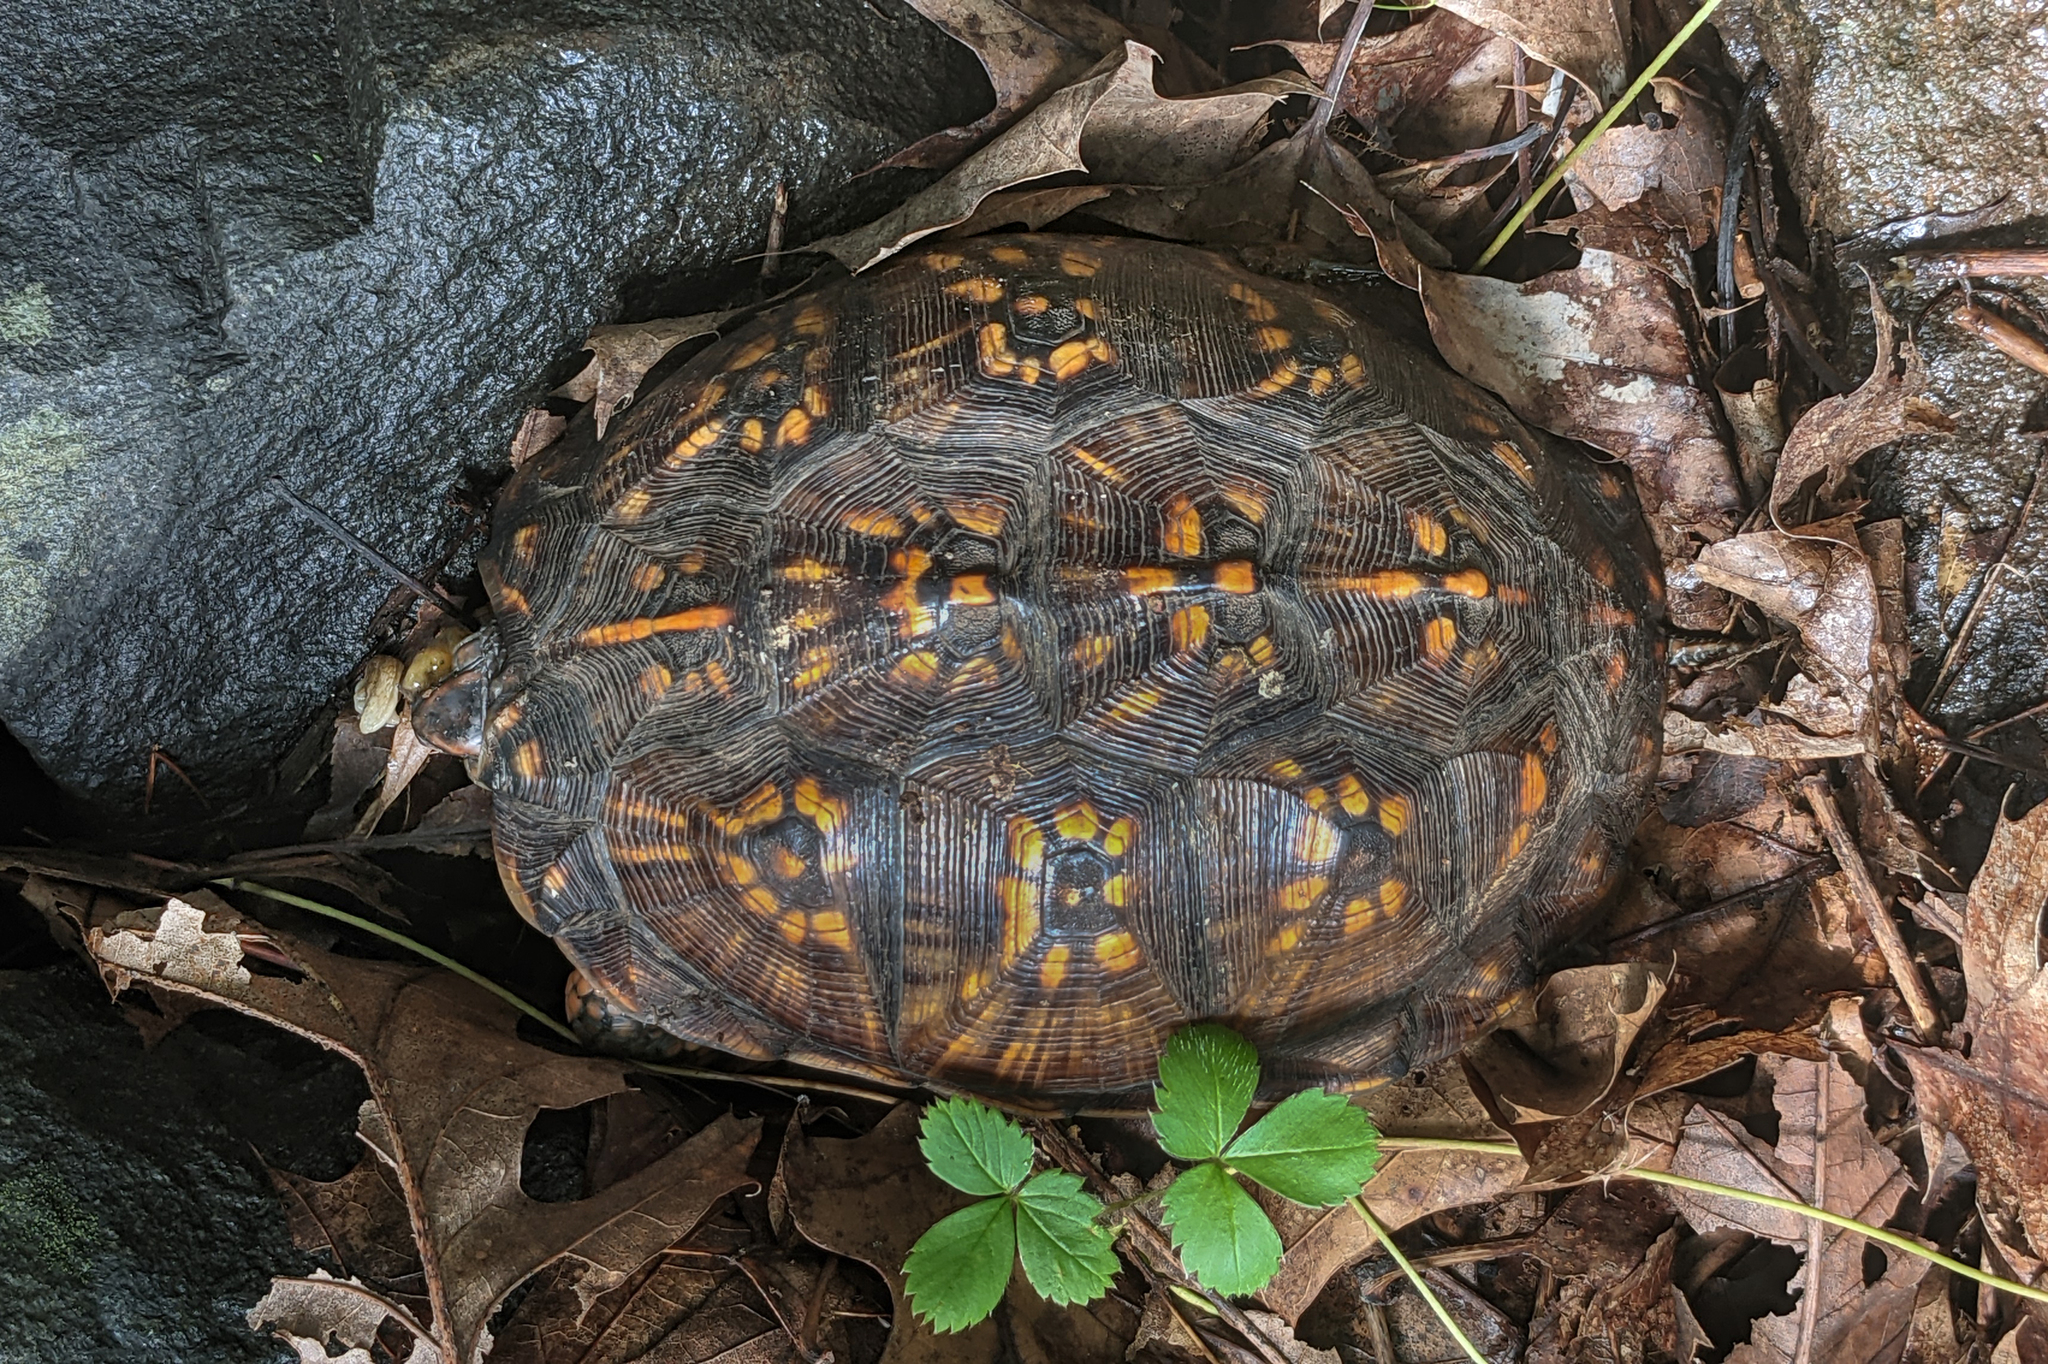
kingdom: Animalia
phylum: Chordata
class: Testudines
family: Emydidae
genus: Terrapene
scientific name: Terrapene carolina
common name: Common box turtle
